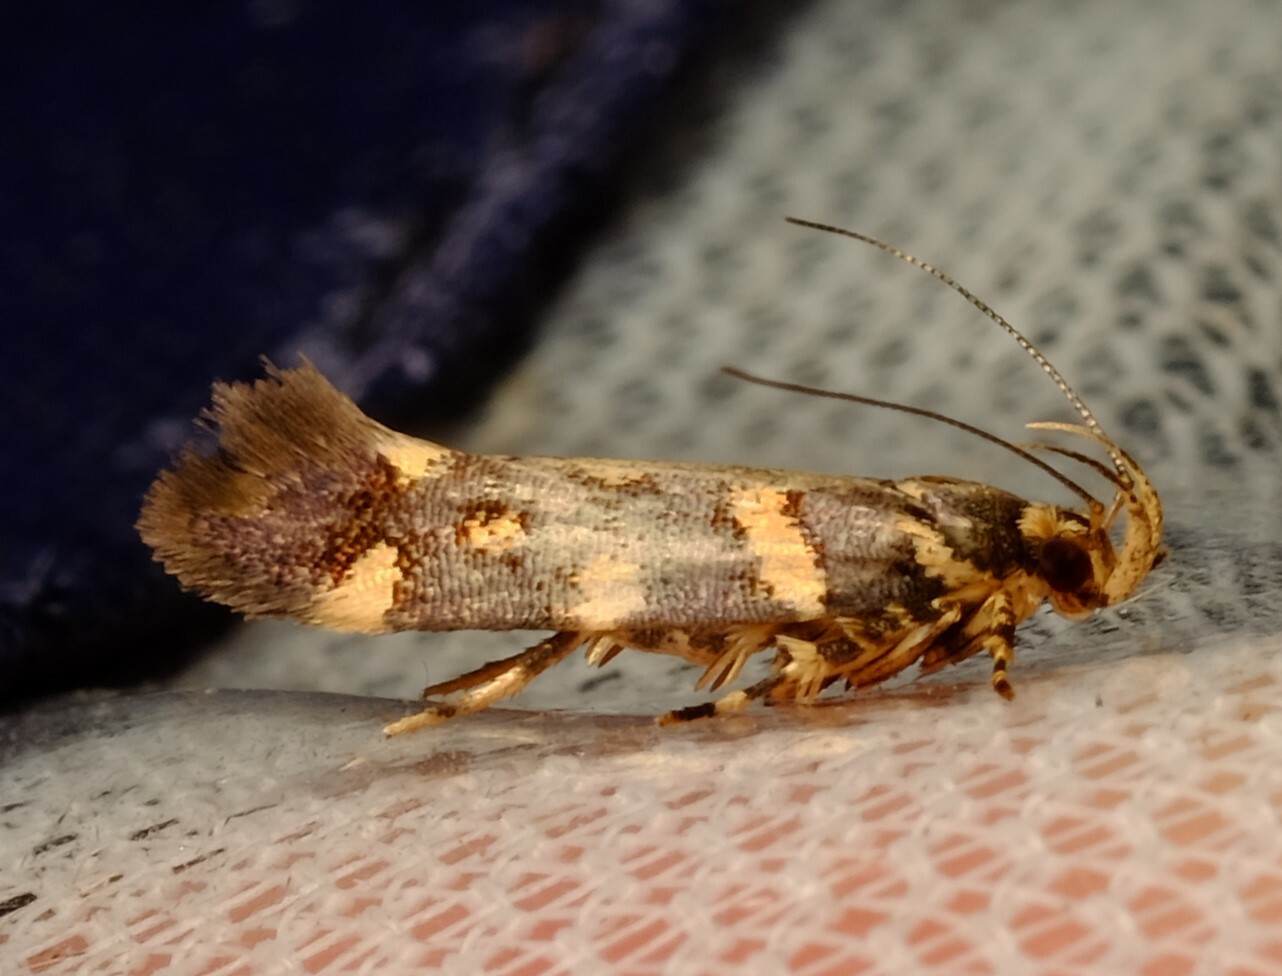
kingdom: Animalia
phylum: Arthropoda
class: Insecta
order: Lepidoptera
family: Cosmopterigidae
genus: Macrobathra
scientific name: Macrobathra myriophthalma
